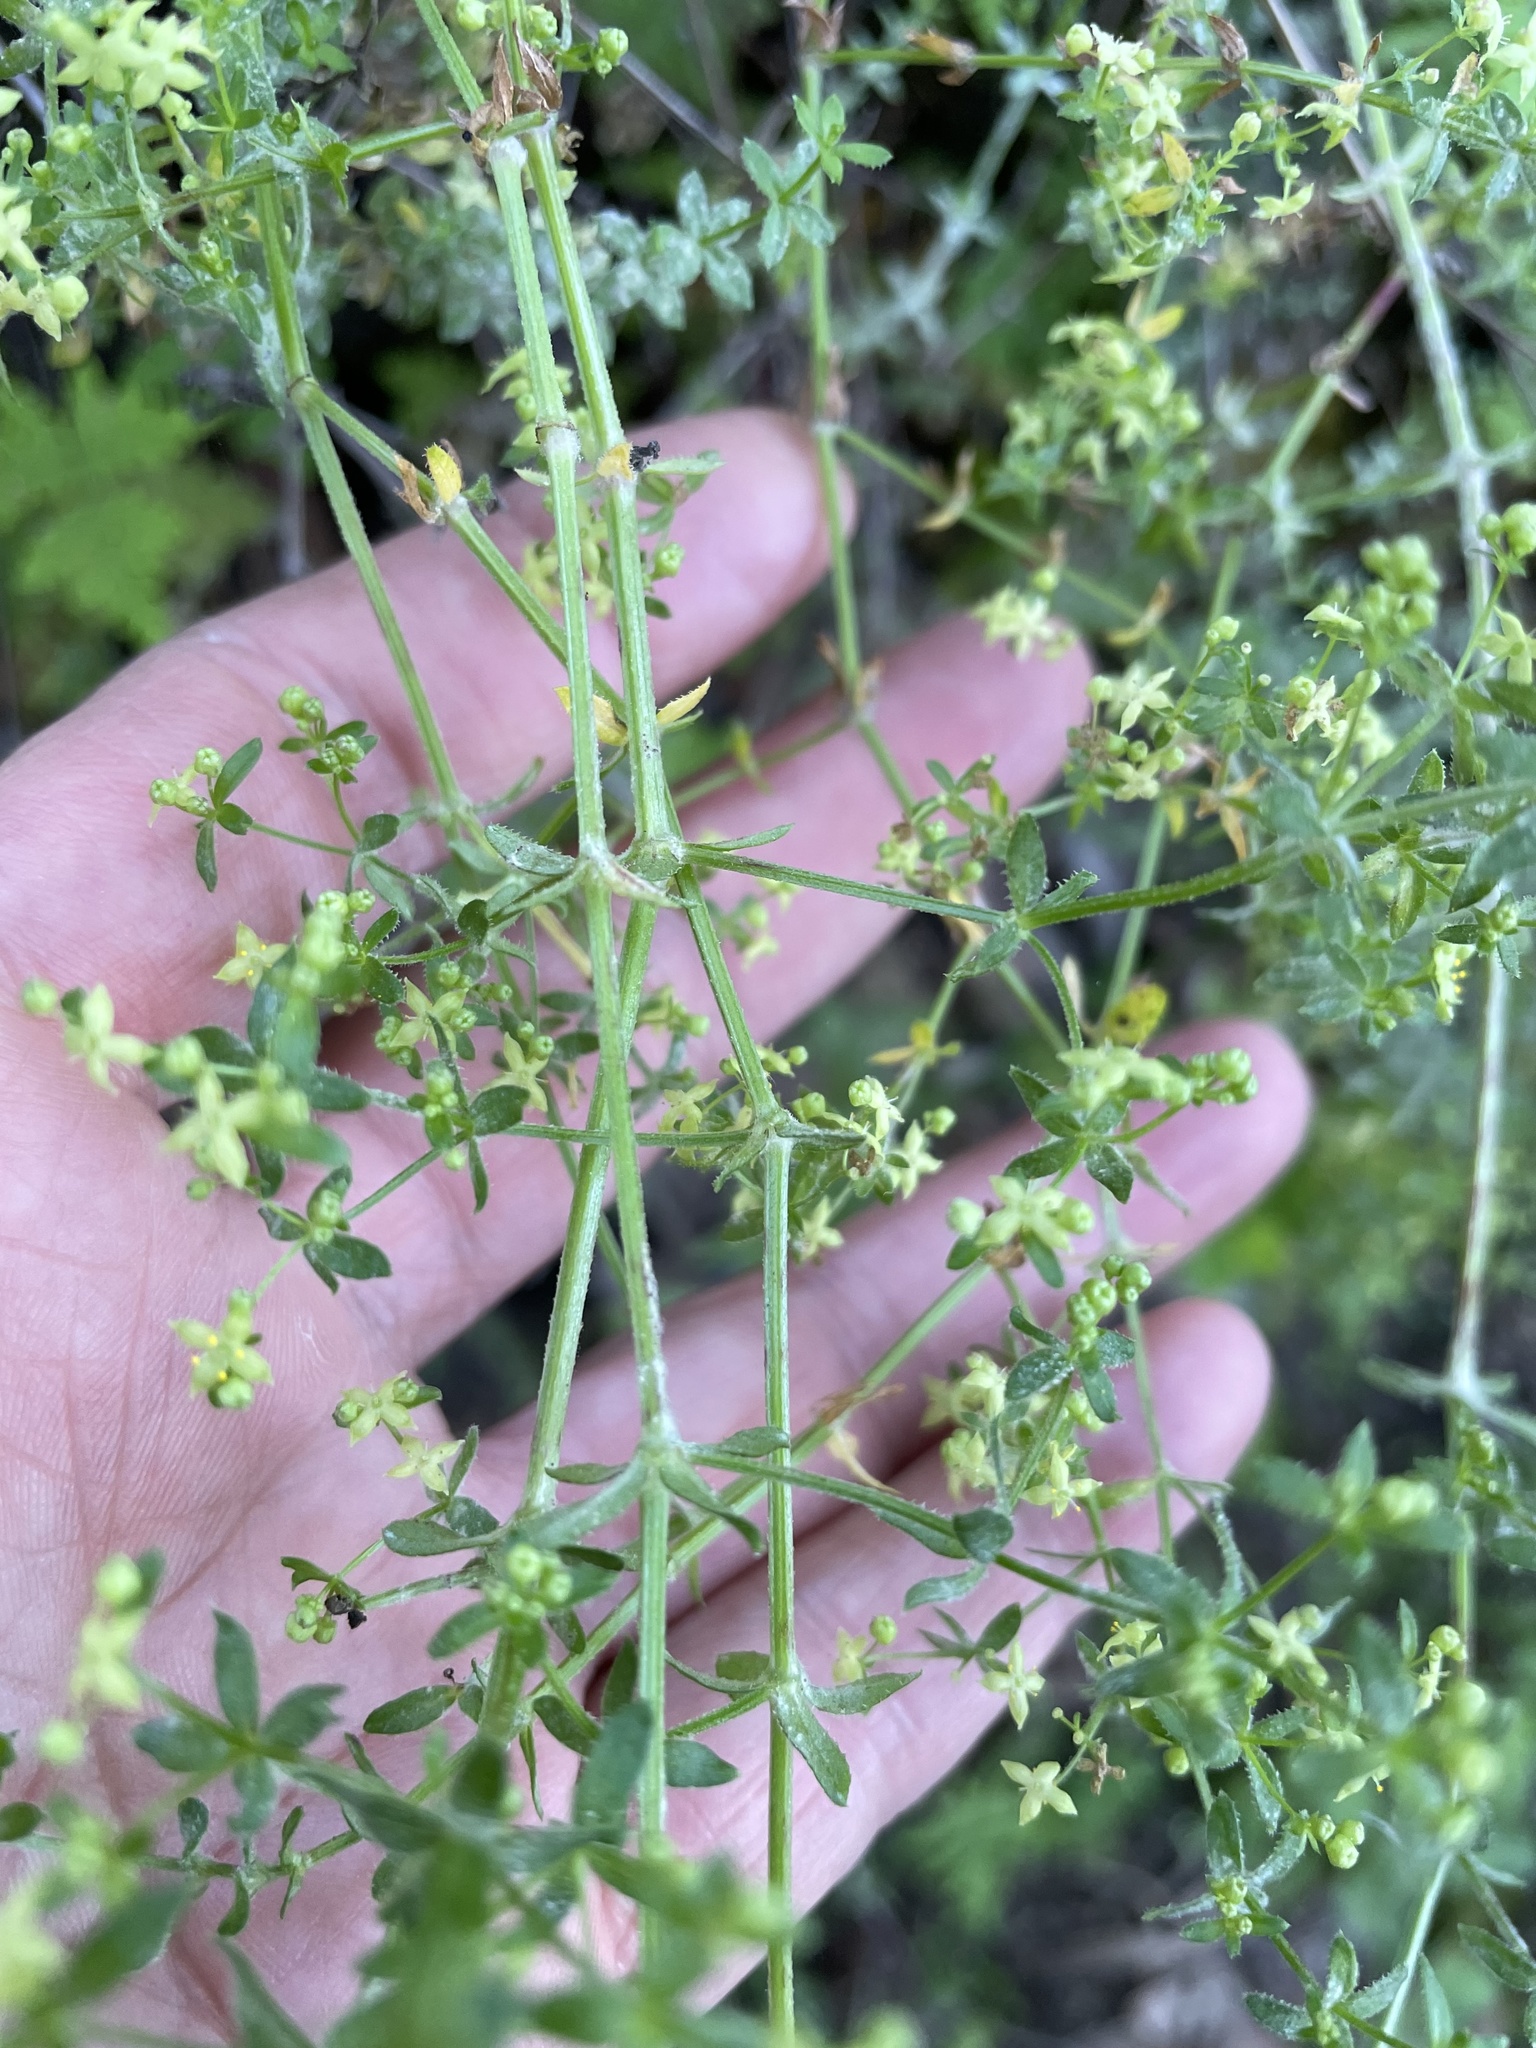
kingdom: Plantae
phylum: Tracheophyta
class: Magnoliopsida
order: Gentianales
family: Rubiaceae
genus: Galium
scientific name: Galium porrigens
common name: Climbing bedstraw
